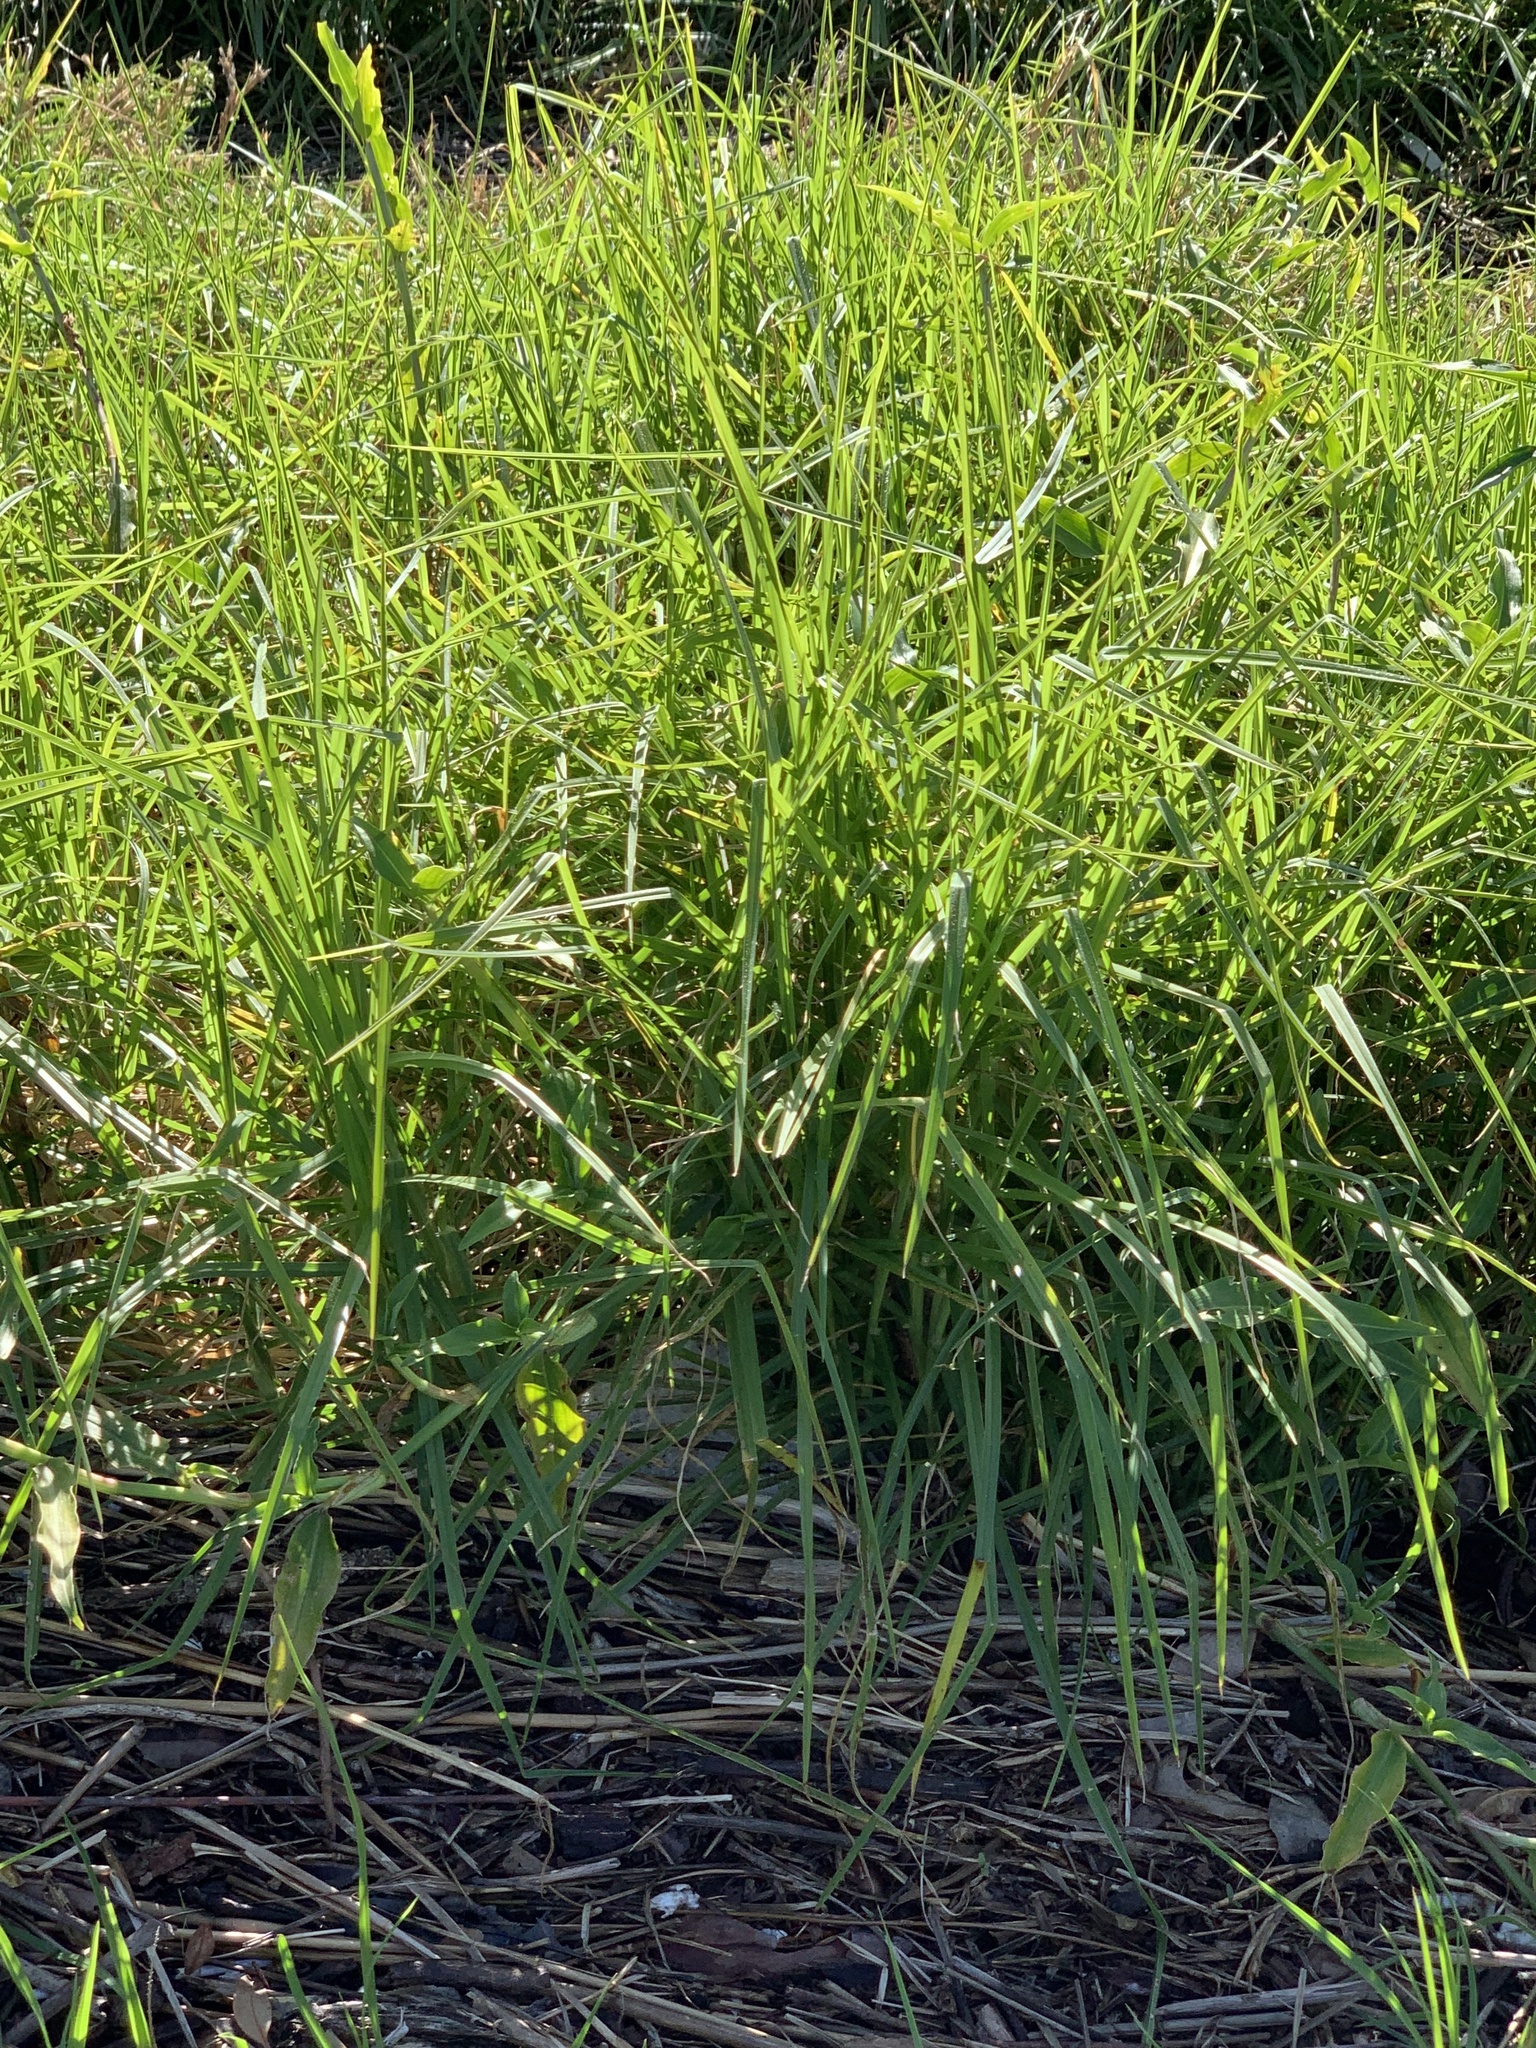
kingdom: Plantae
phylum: Tracheophyta
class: Liliopsida
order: Poales
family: Poaceae
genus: Cenchrus
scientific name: Cenchrus clandestinus
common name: Kikuyugrass
